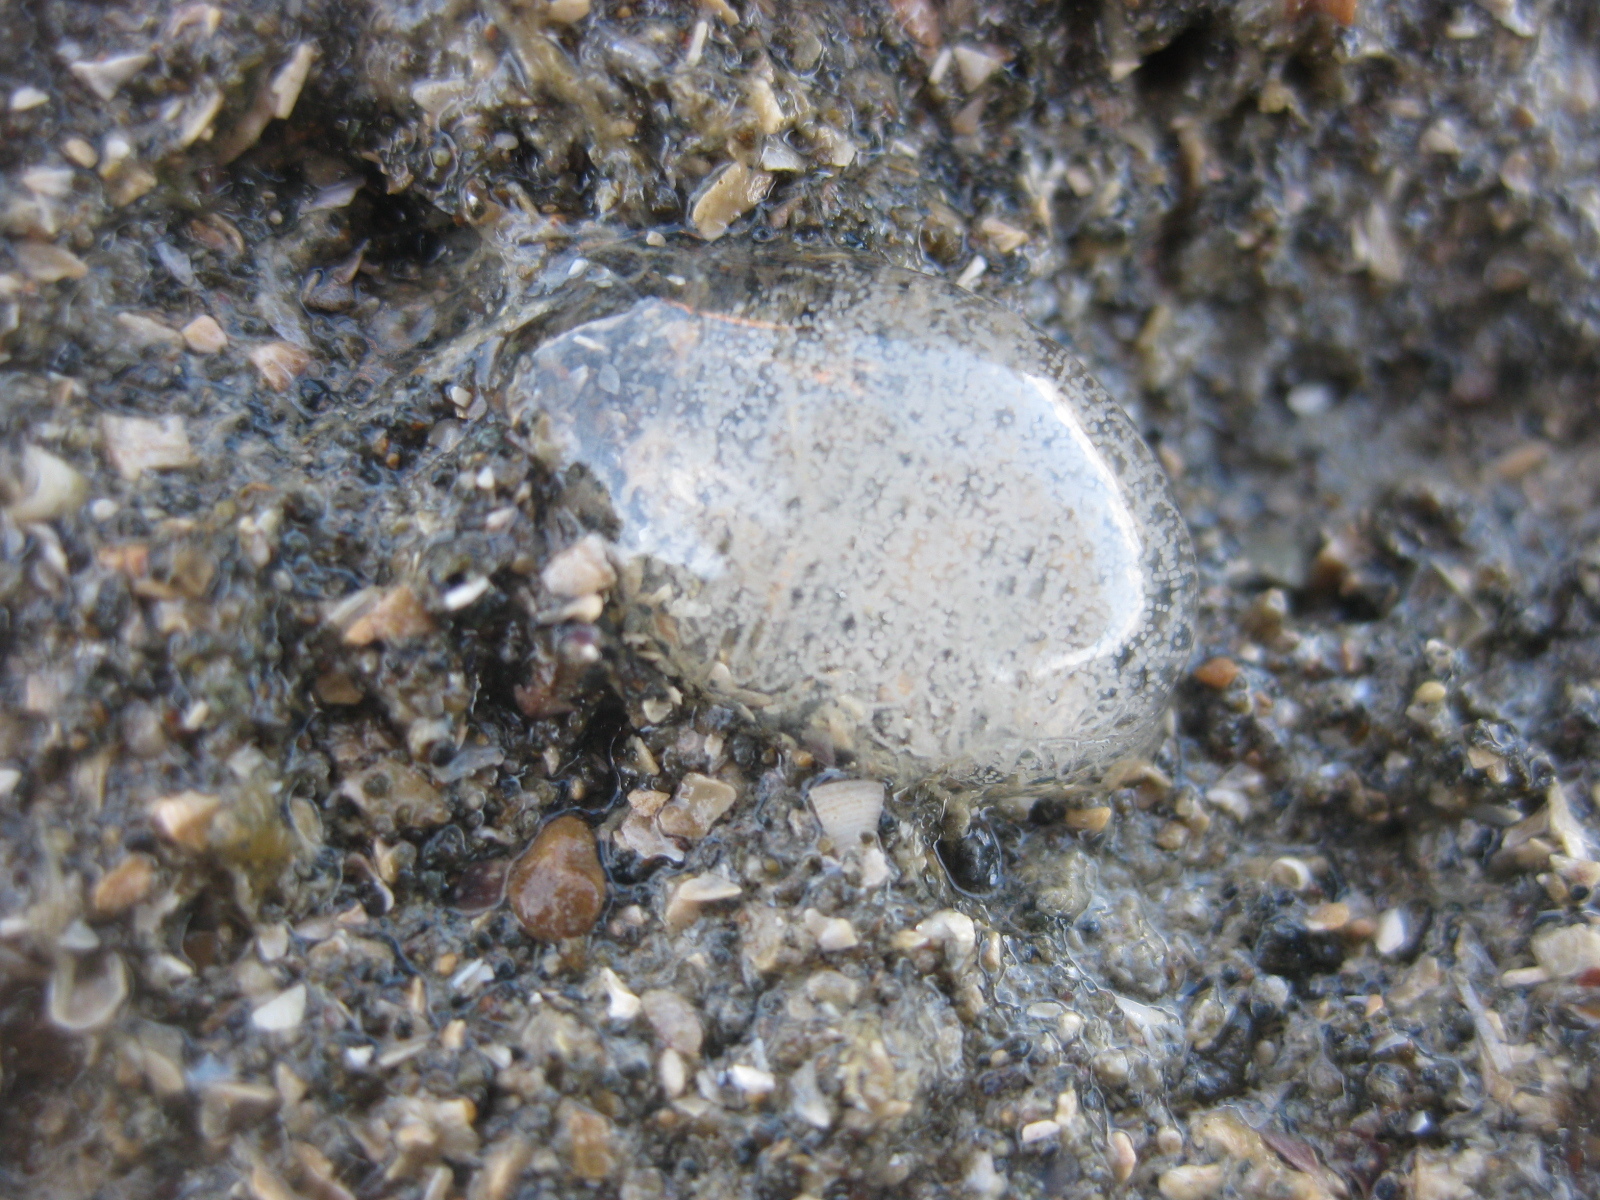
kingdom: Animalia
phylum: Mollusca
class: Gastropoda
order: Cephalaspidea
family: Aglajidae
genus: Melanochlamys
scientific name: Melanochlamys cylindrica
